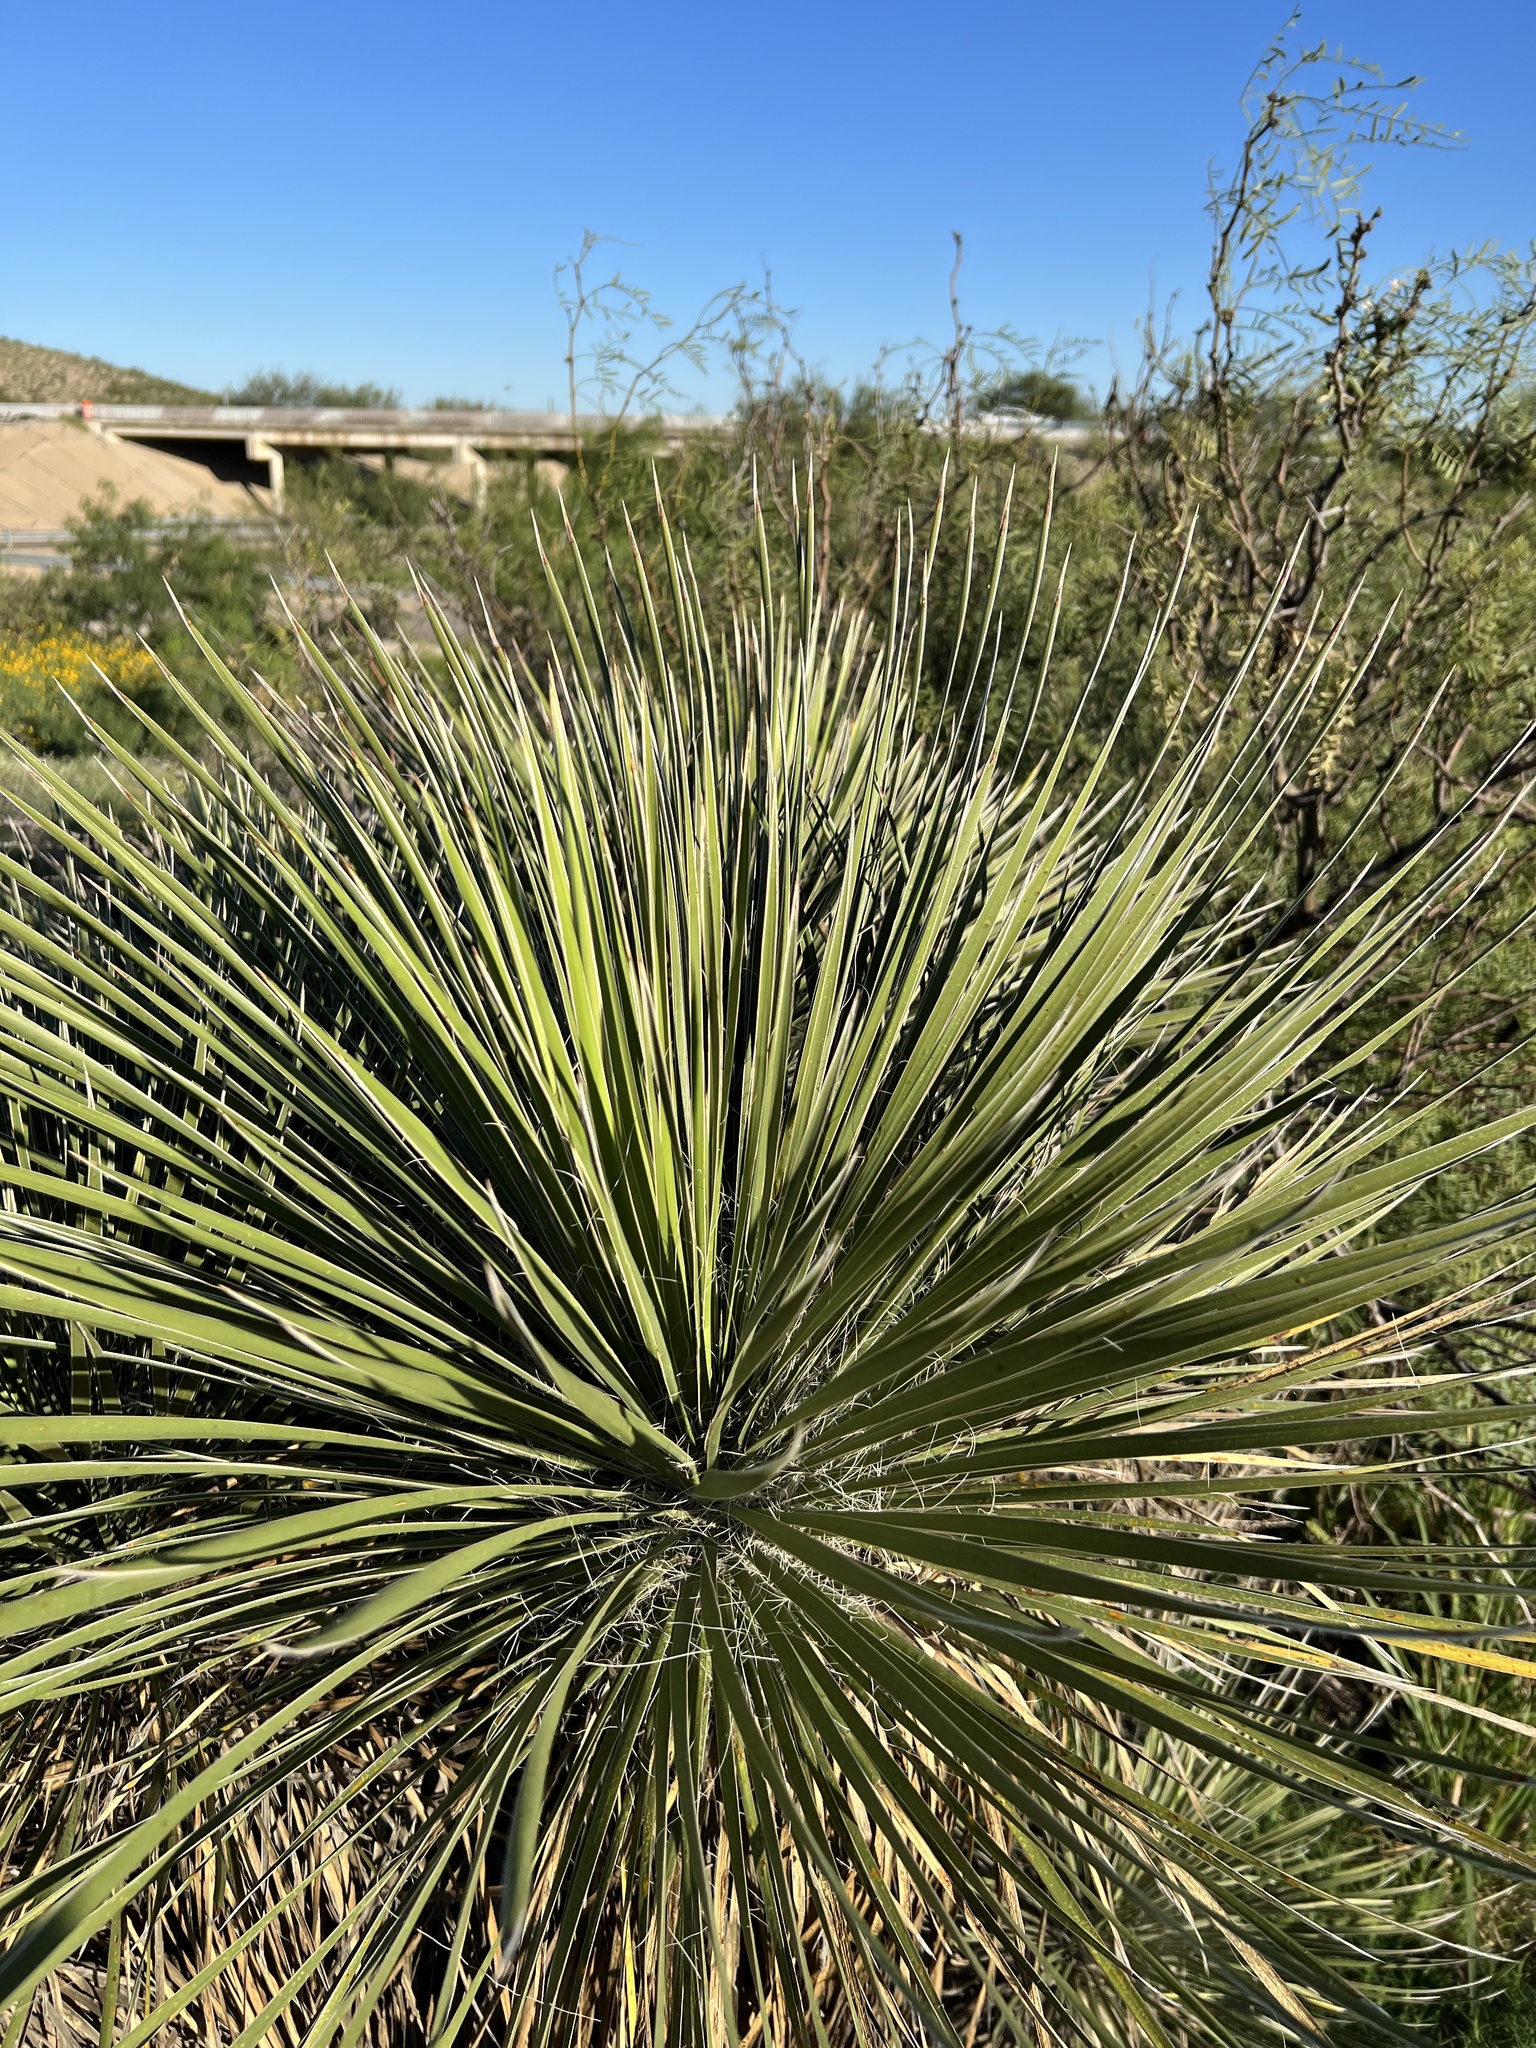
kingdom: Plantae
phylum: Tracheophyta
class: Liliopsida
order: Asparagales
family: Asparagaceae
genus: Yucca
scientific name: Yucca elata
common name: Palmella
